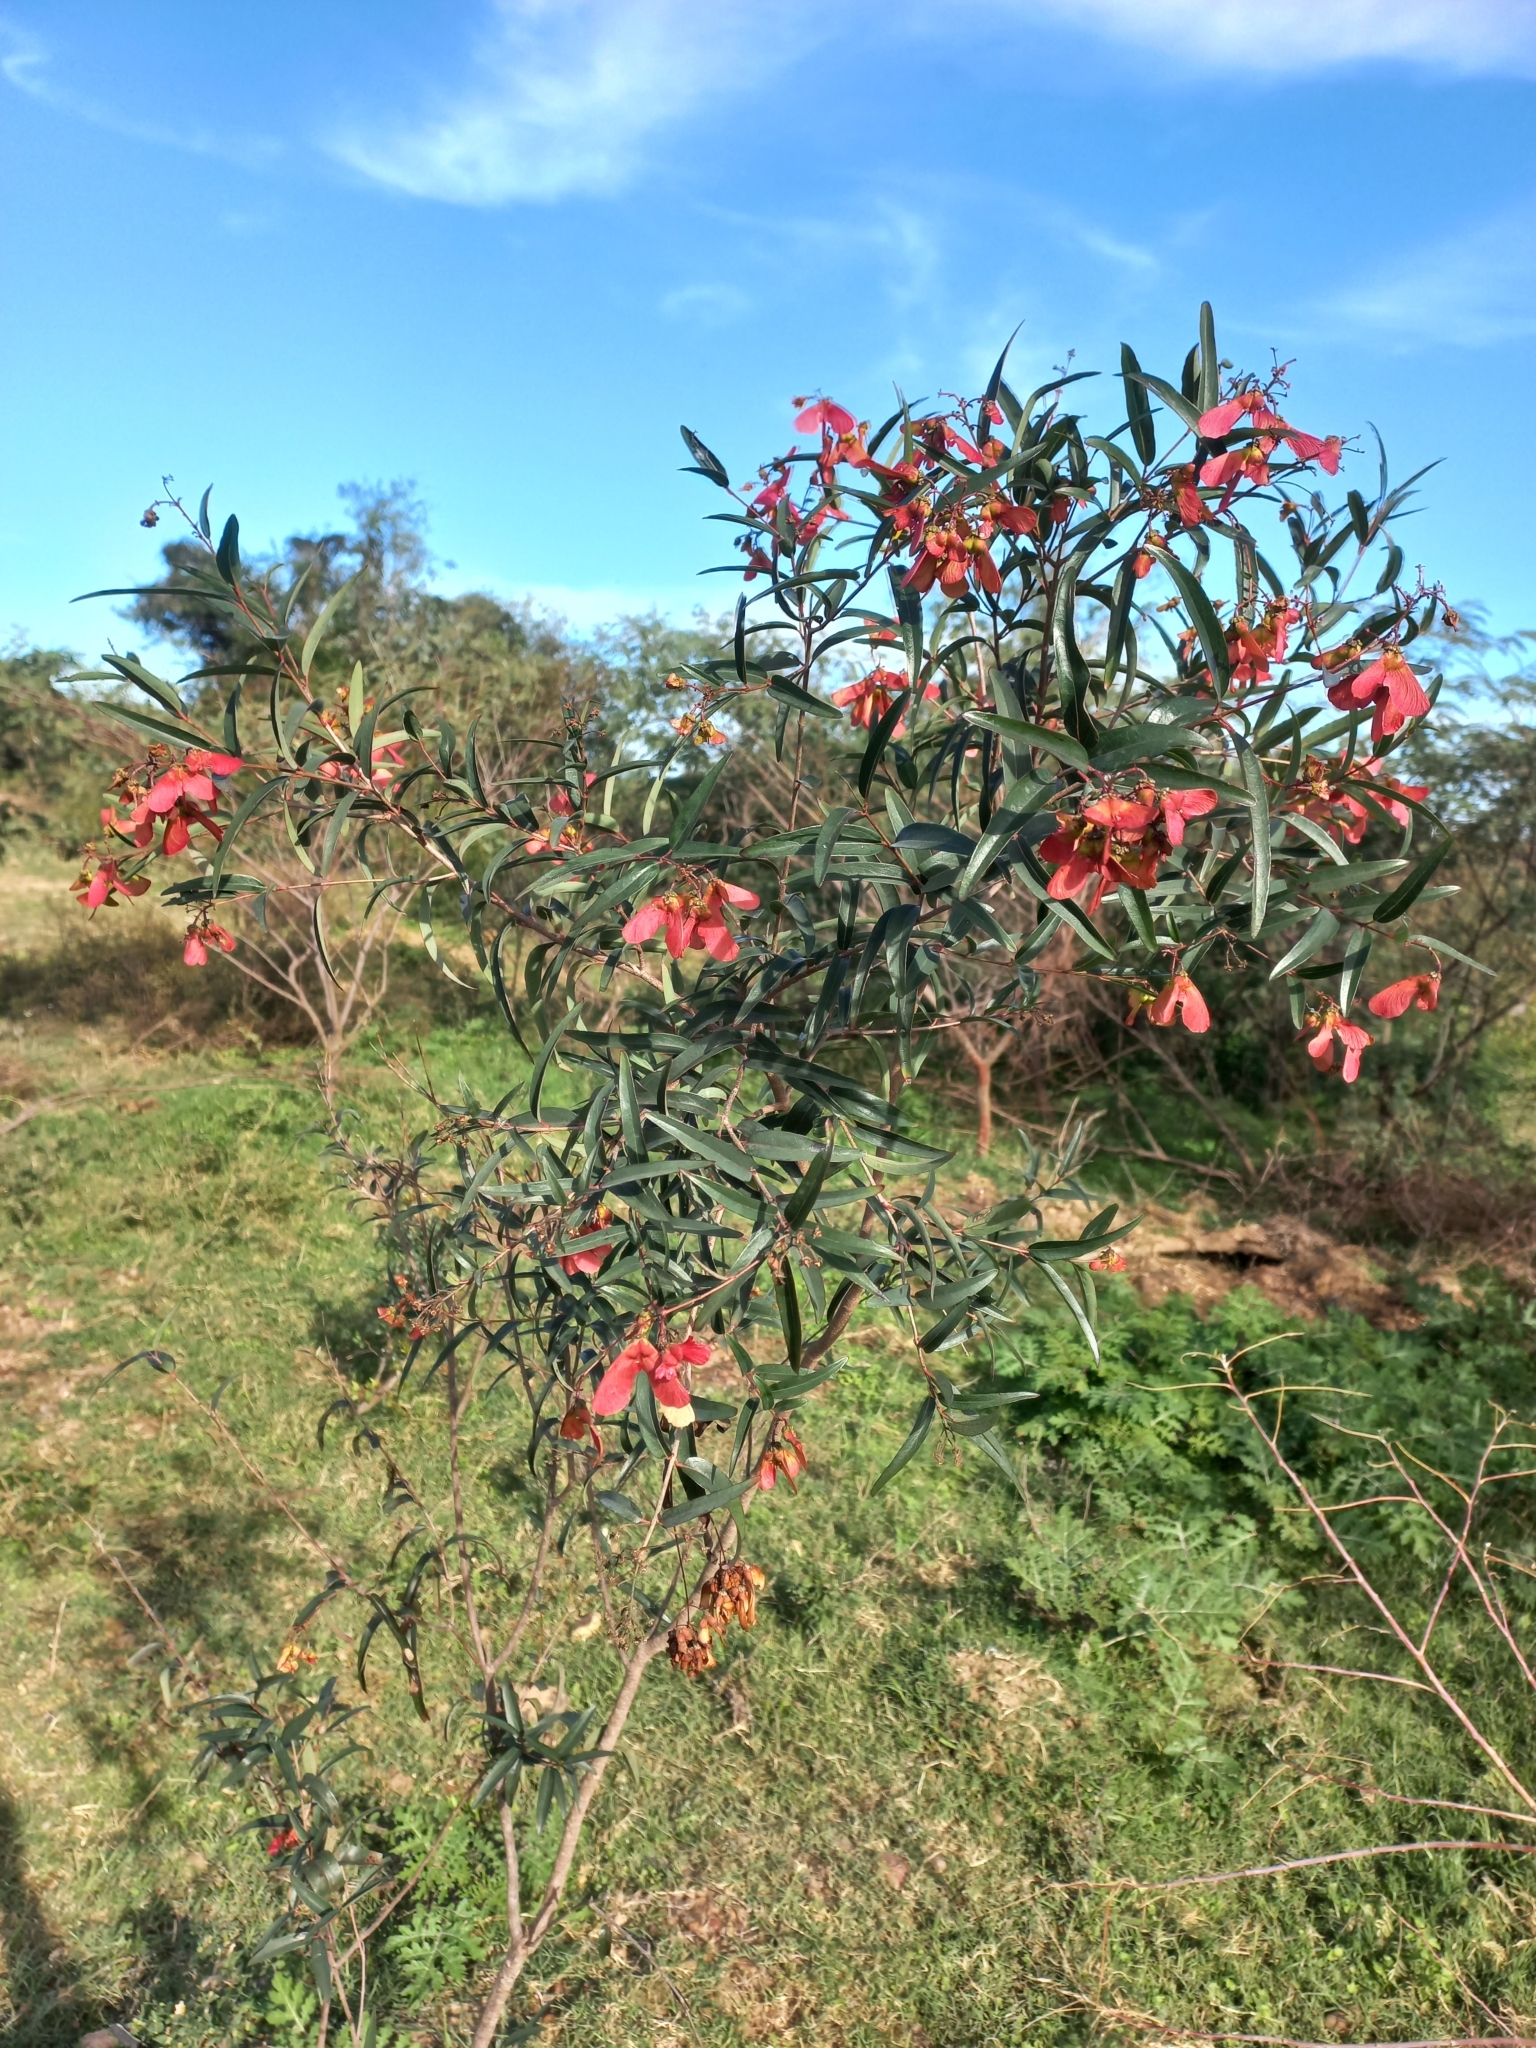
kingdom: Plantae
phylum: Tracheophyta
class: Magnoliopsida
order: Malpighiales
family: Malpighiaceae
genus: Heteropterys
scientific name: Heteropterys glabra
